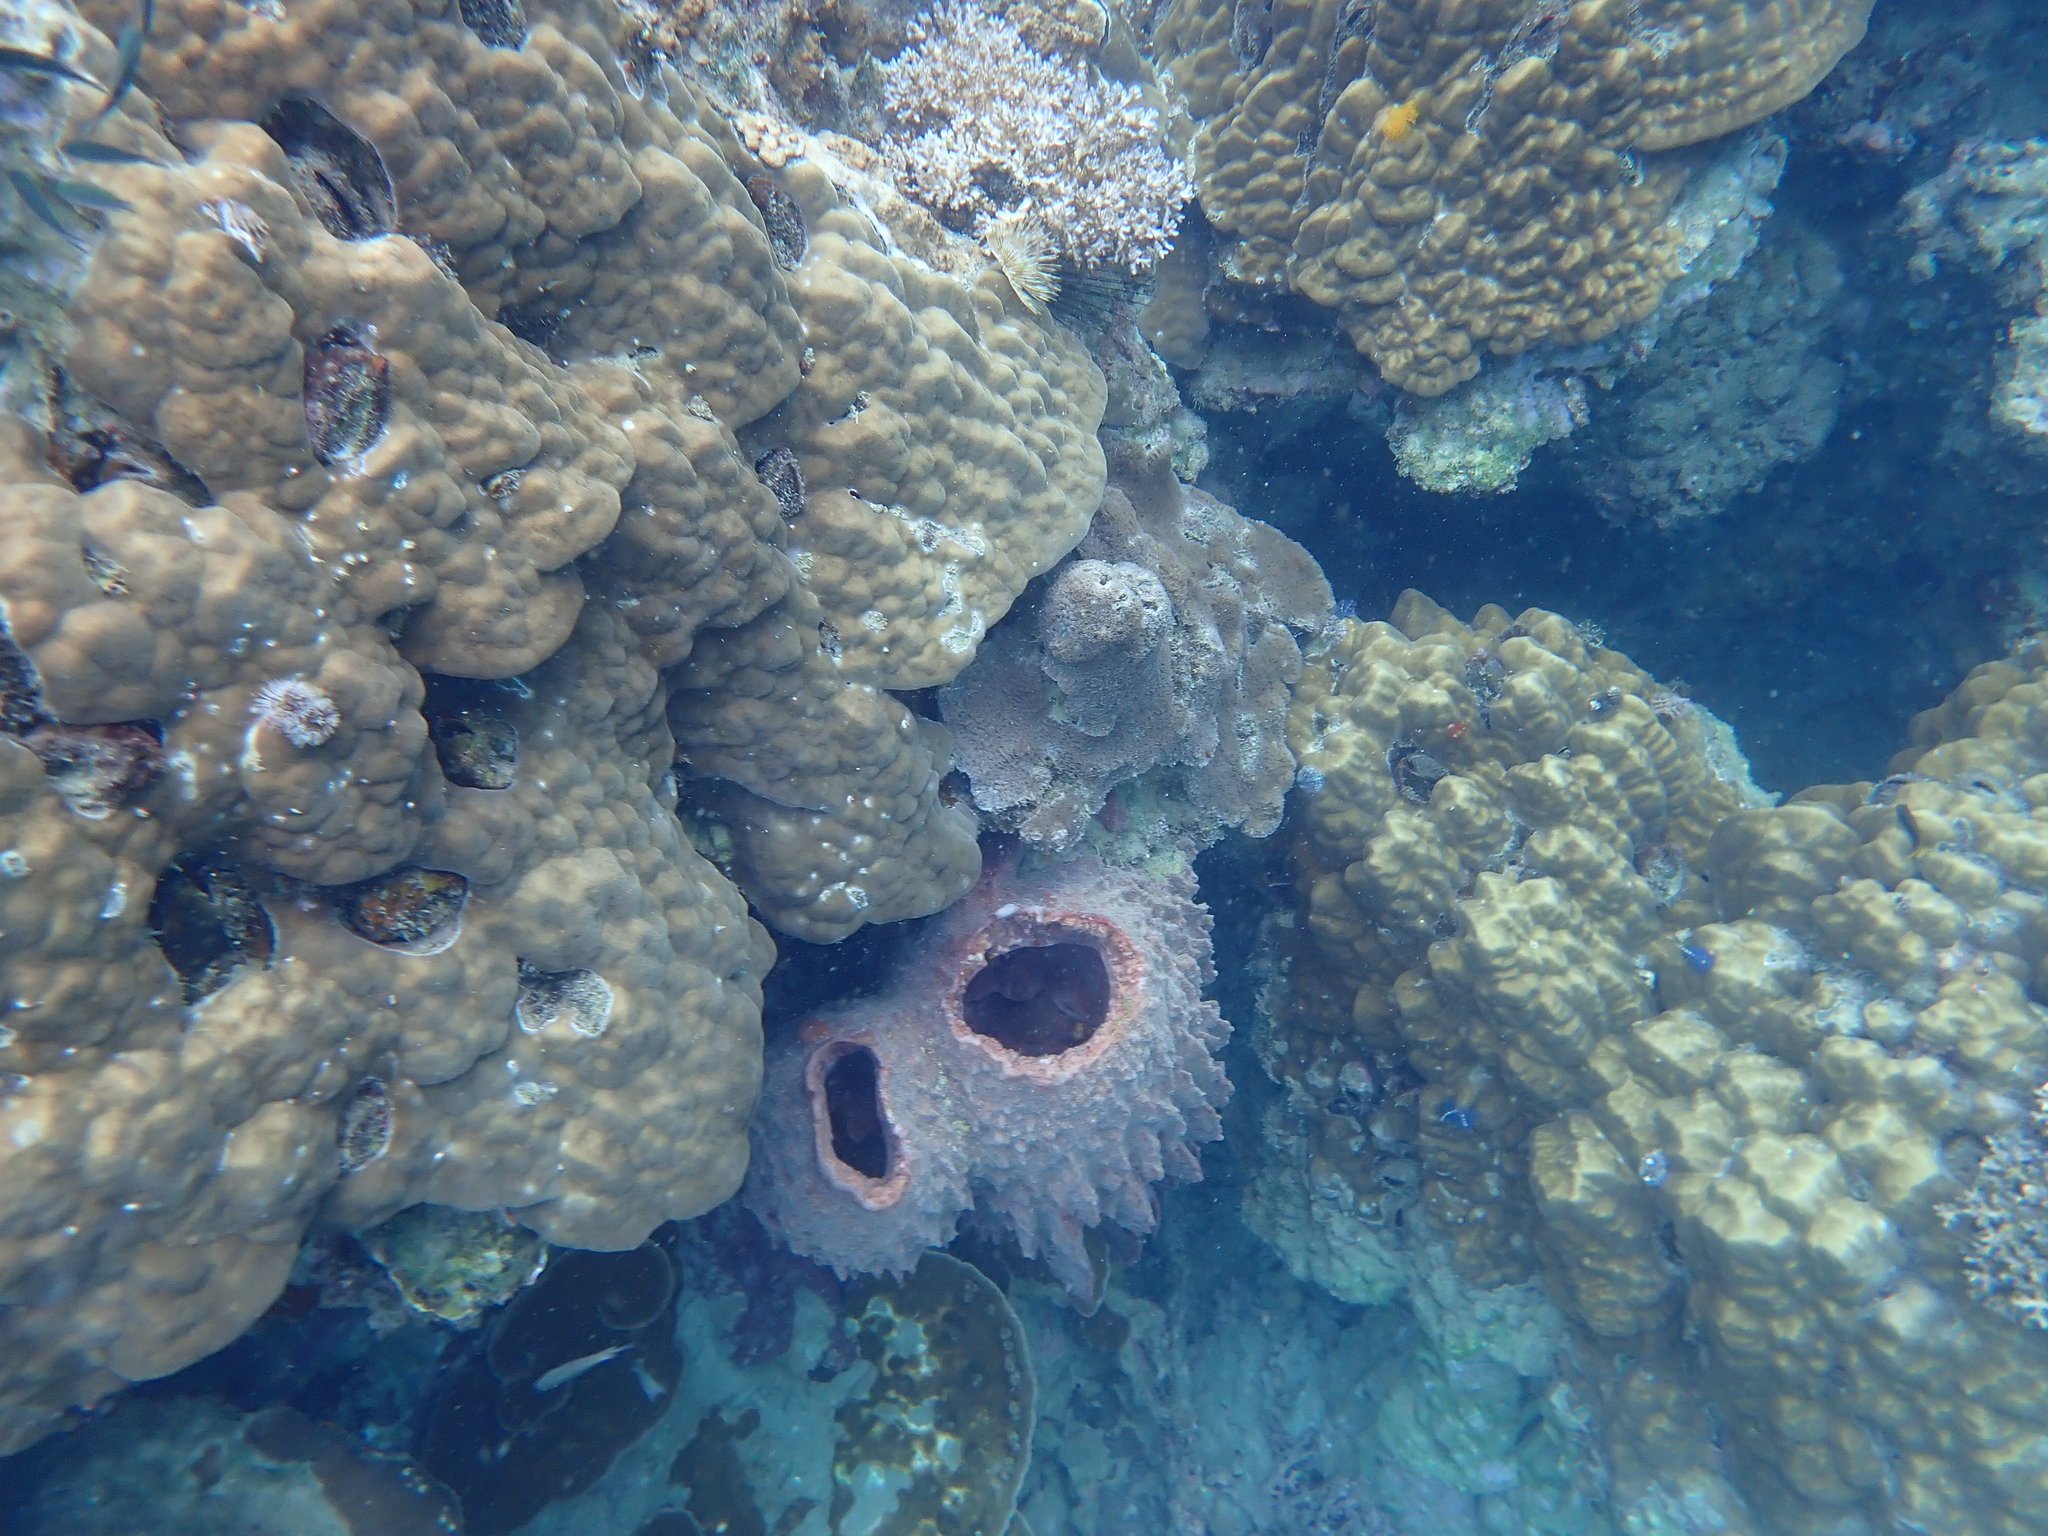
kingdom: Animalia
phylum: Porifera
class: Demospongiae
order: Haplosclerida
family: Petrosiidae
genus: Xestospongia
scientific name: Xestospongia testudinaria
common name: Barrel sponge
